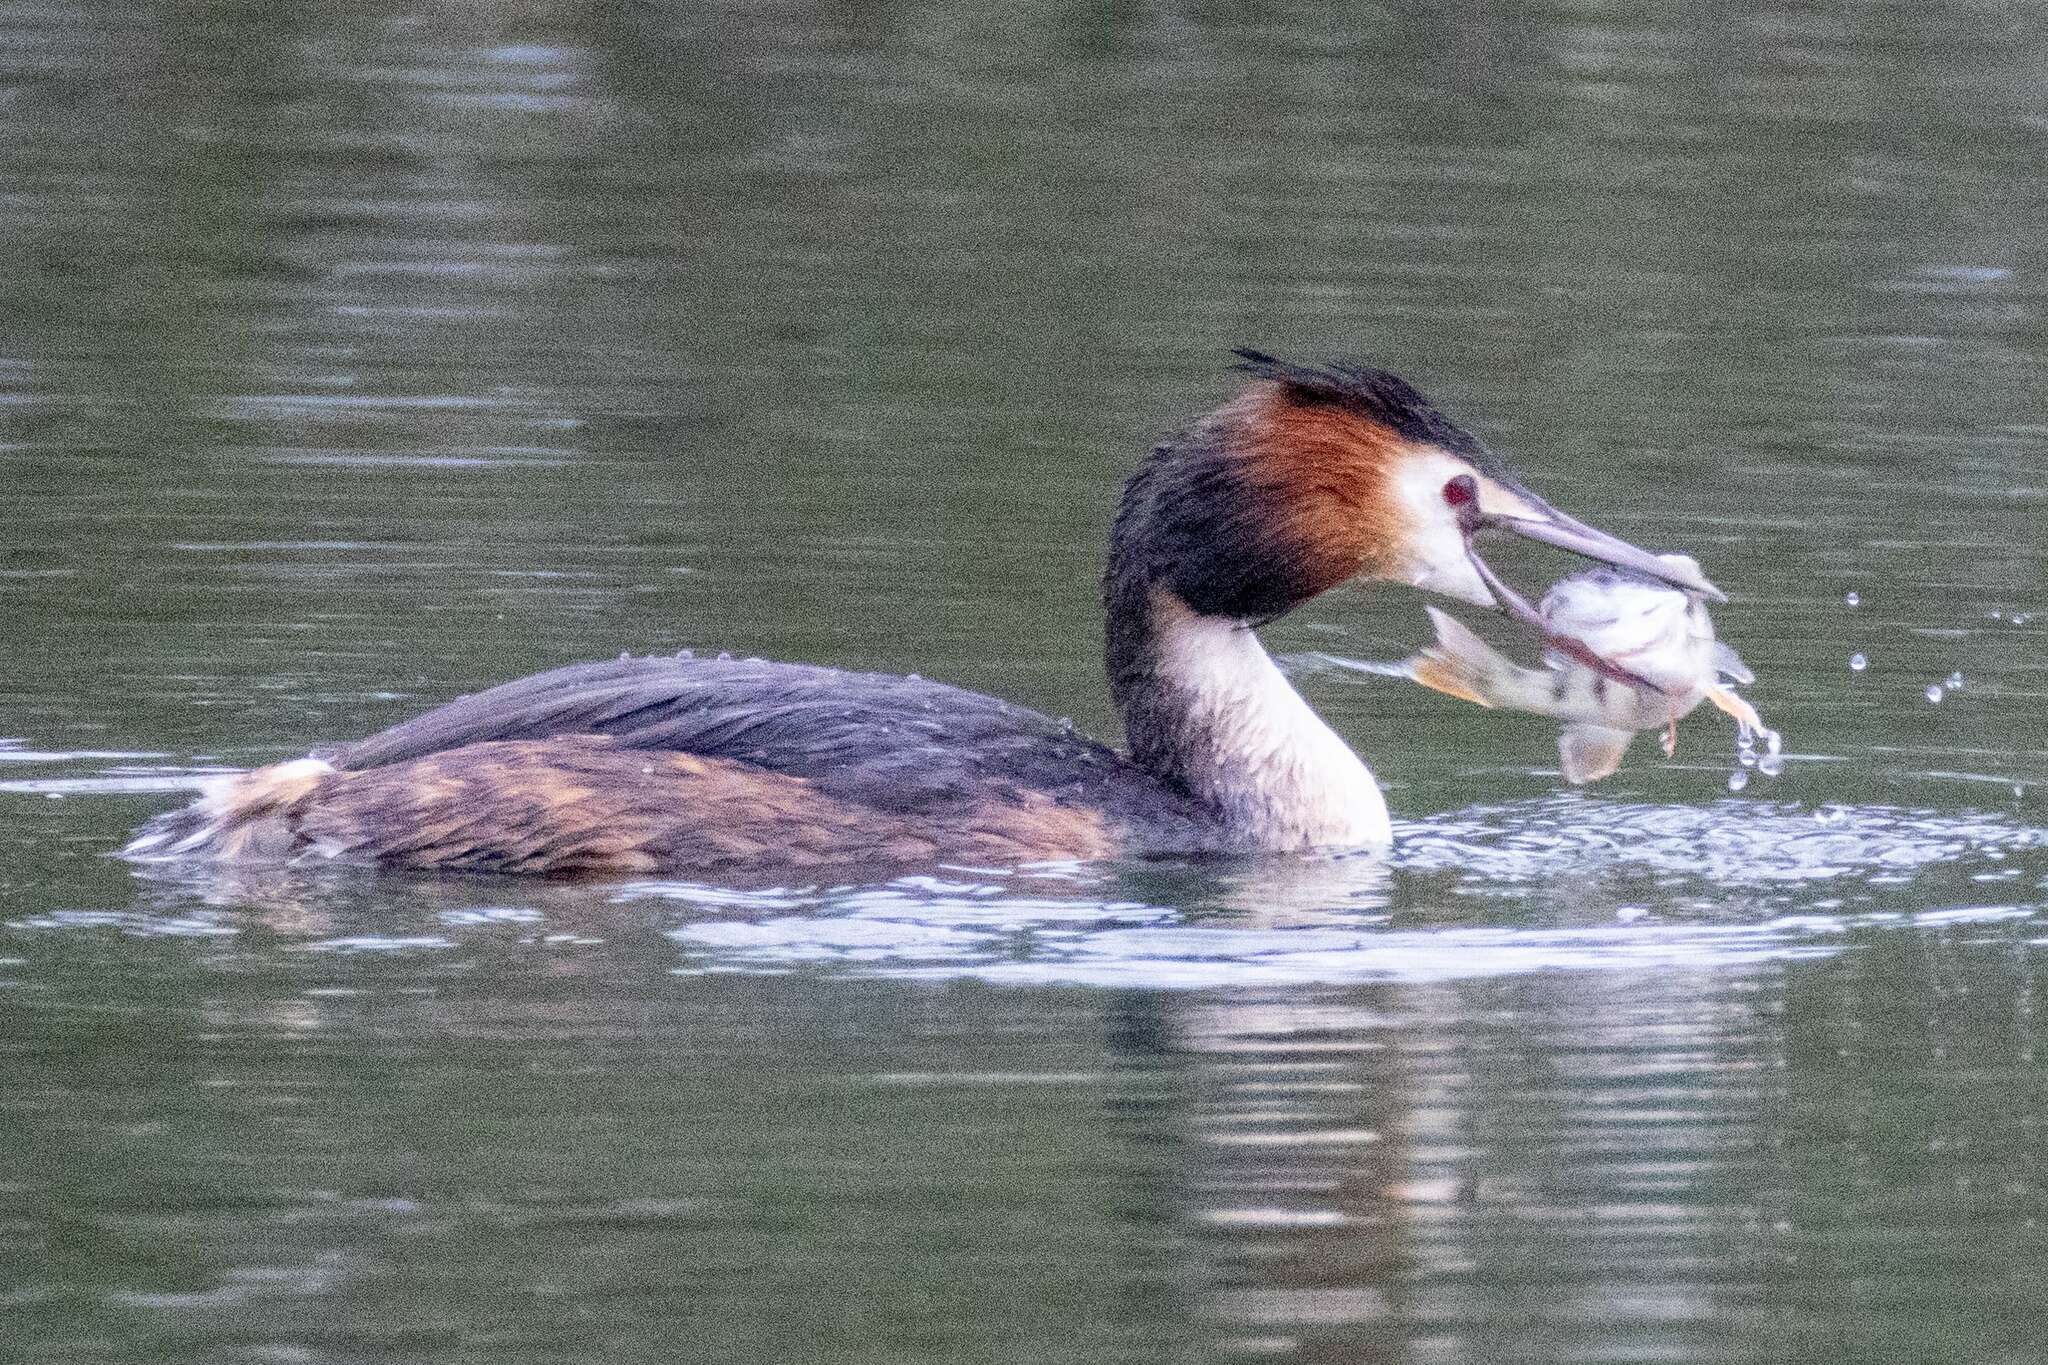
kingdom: Animalia
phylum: Chordata
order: Perciformes
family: Percidae
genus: Perca
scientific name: Perca fluviatilis
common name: Perch
